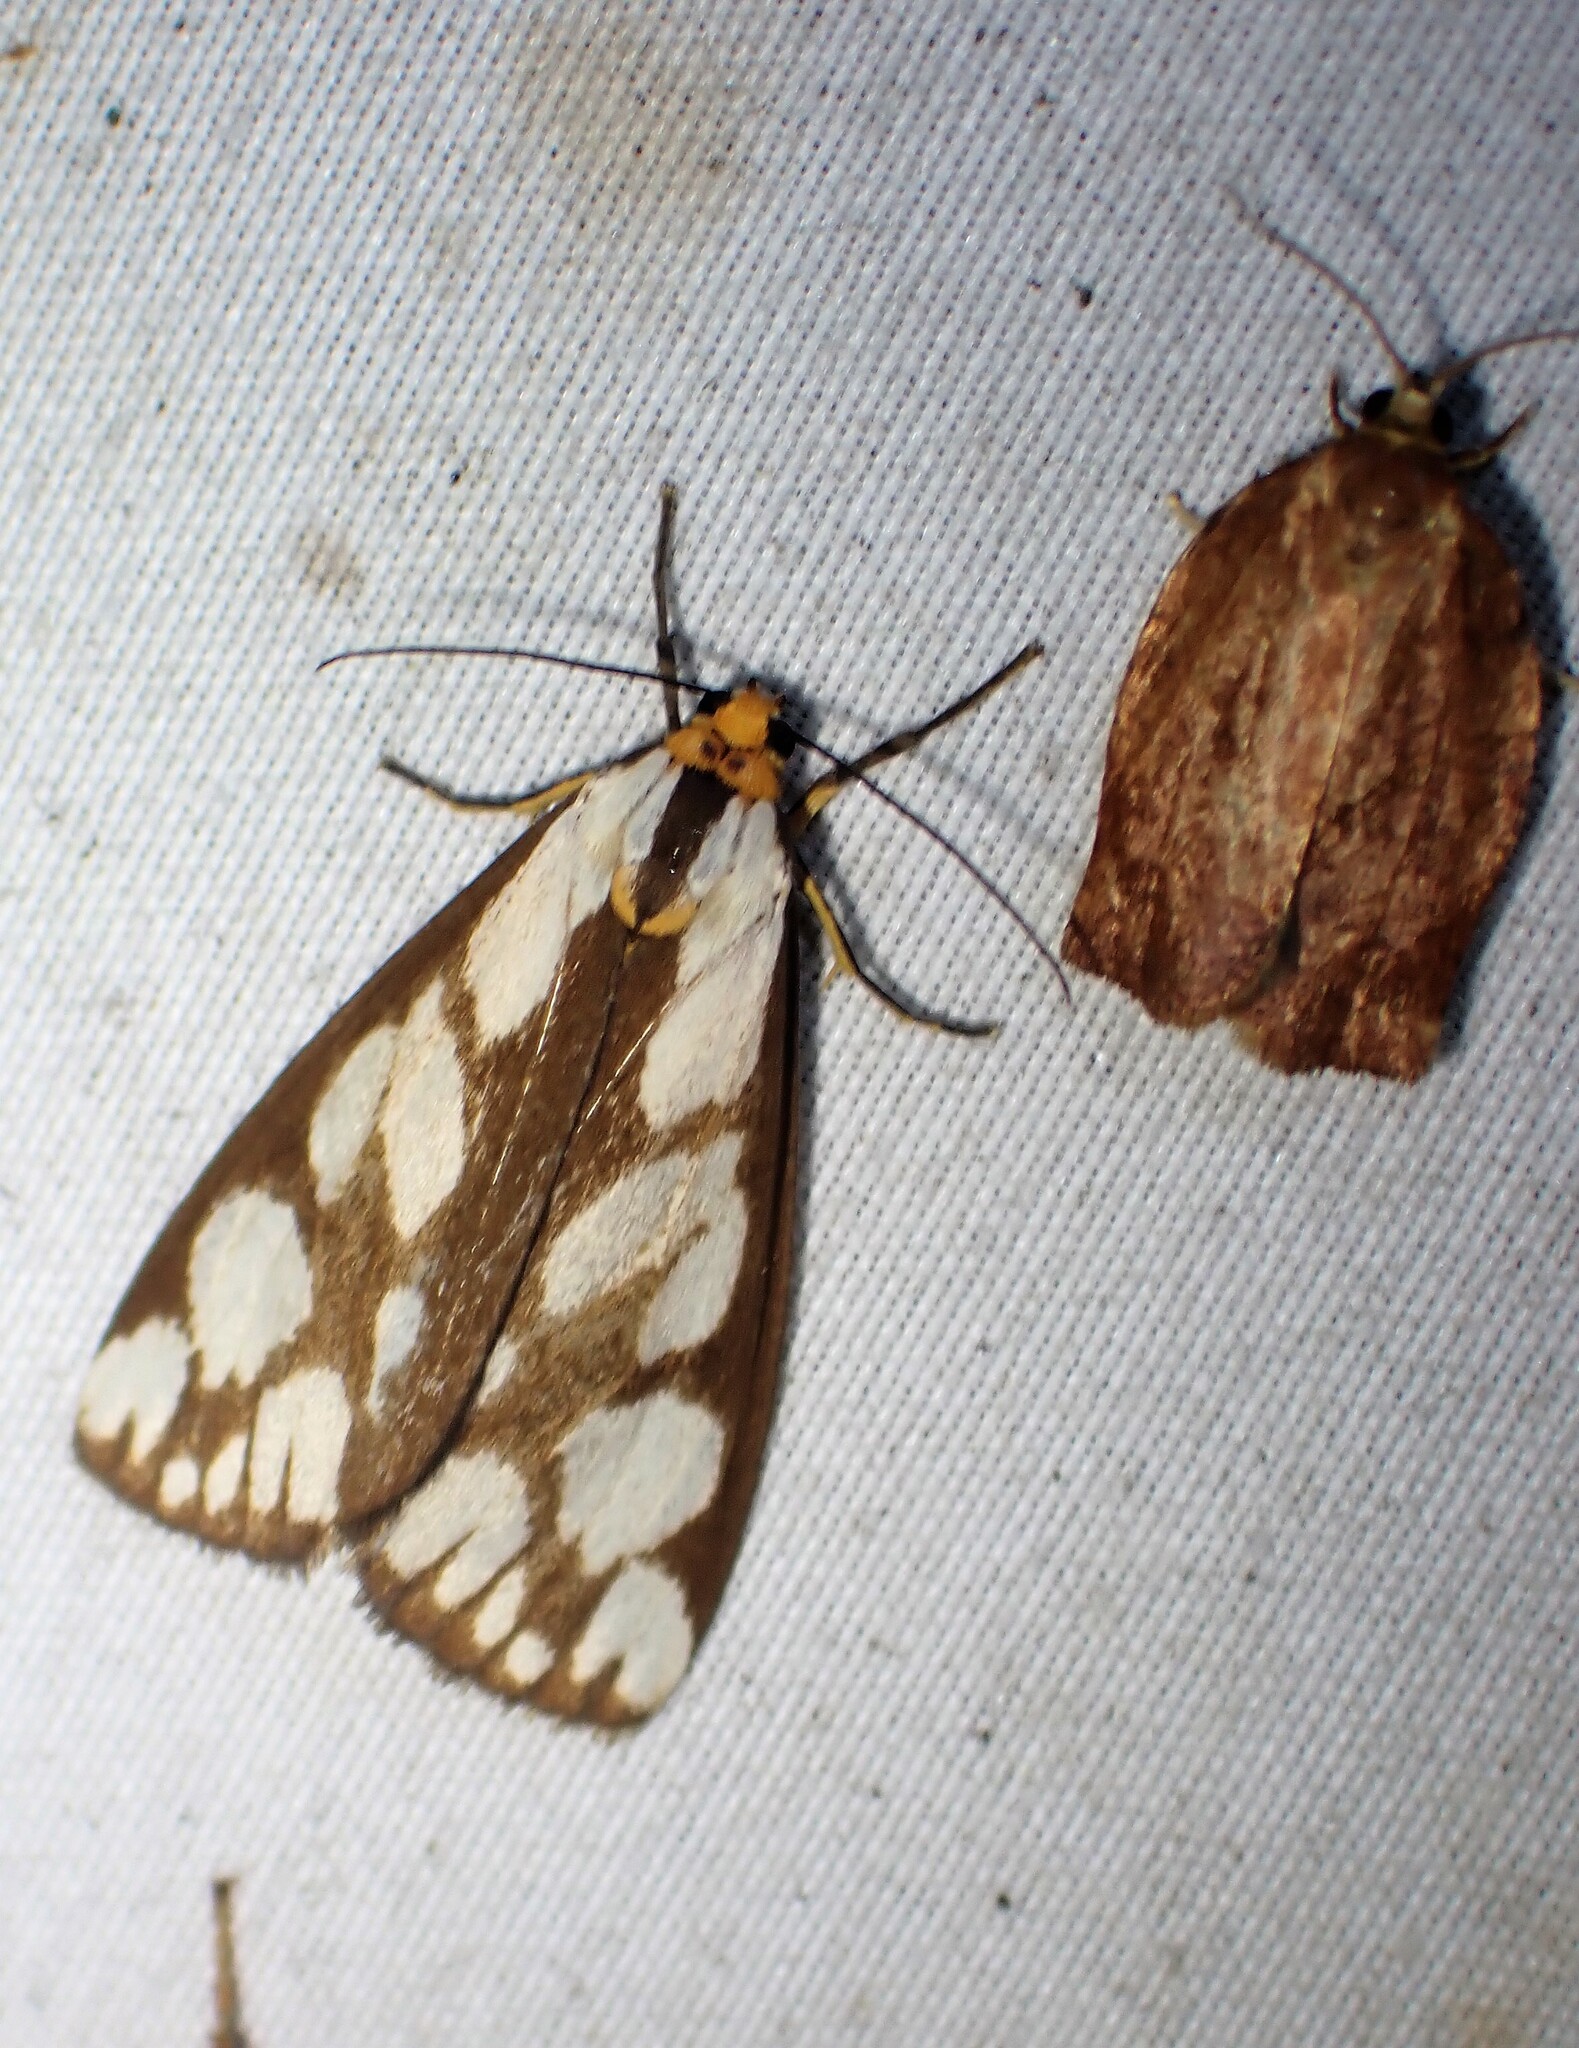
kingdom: Animalia
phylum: Arthropoda
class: Insecta
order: Lepidoptera
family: Erebidae
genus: Haploa
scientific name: Haploa confusa
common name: Confused haploa moth
